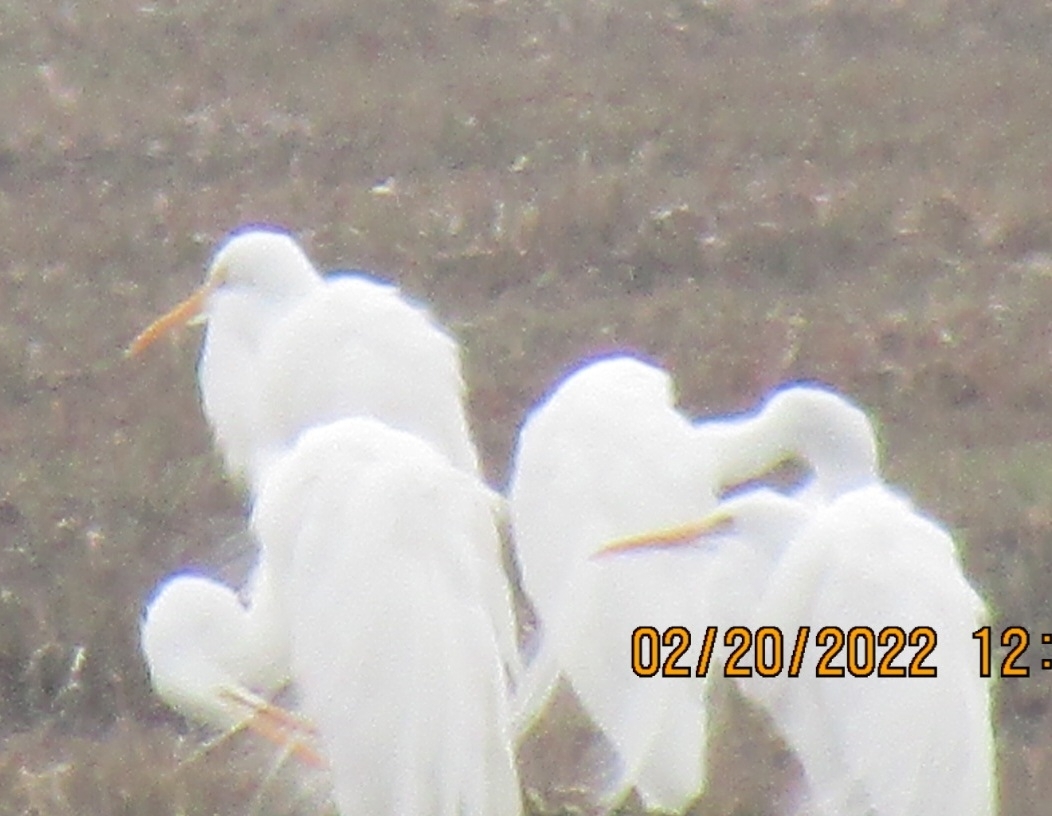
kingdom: Animalia
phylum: Chordata
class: Aves
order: Pelecaniformes
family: Ardeidae
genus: Ardea
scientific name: Ardea alba
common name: Great egret
